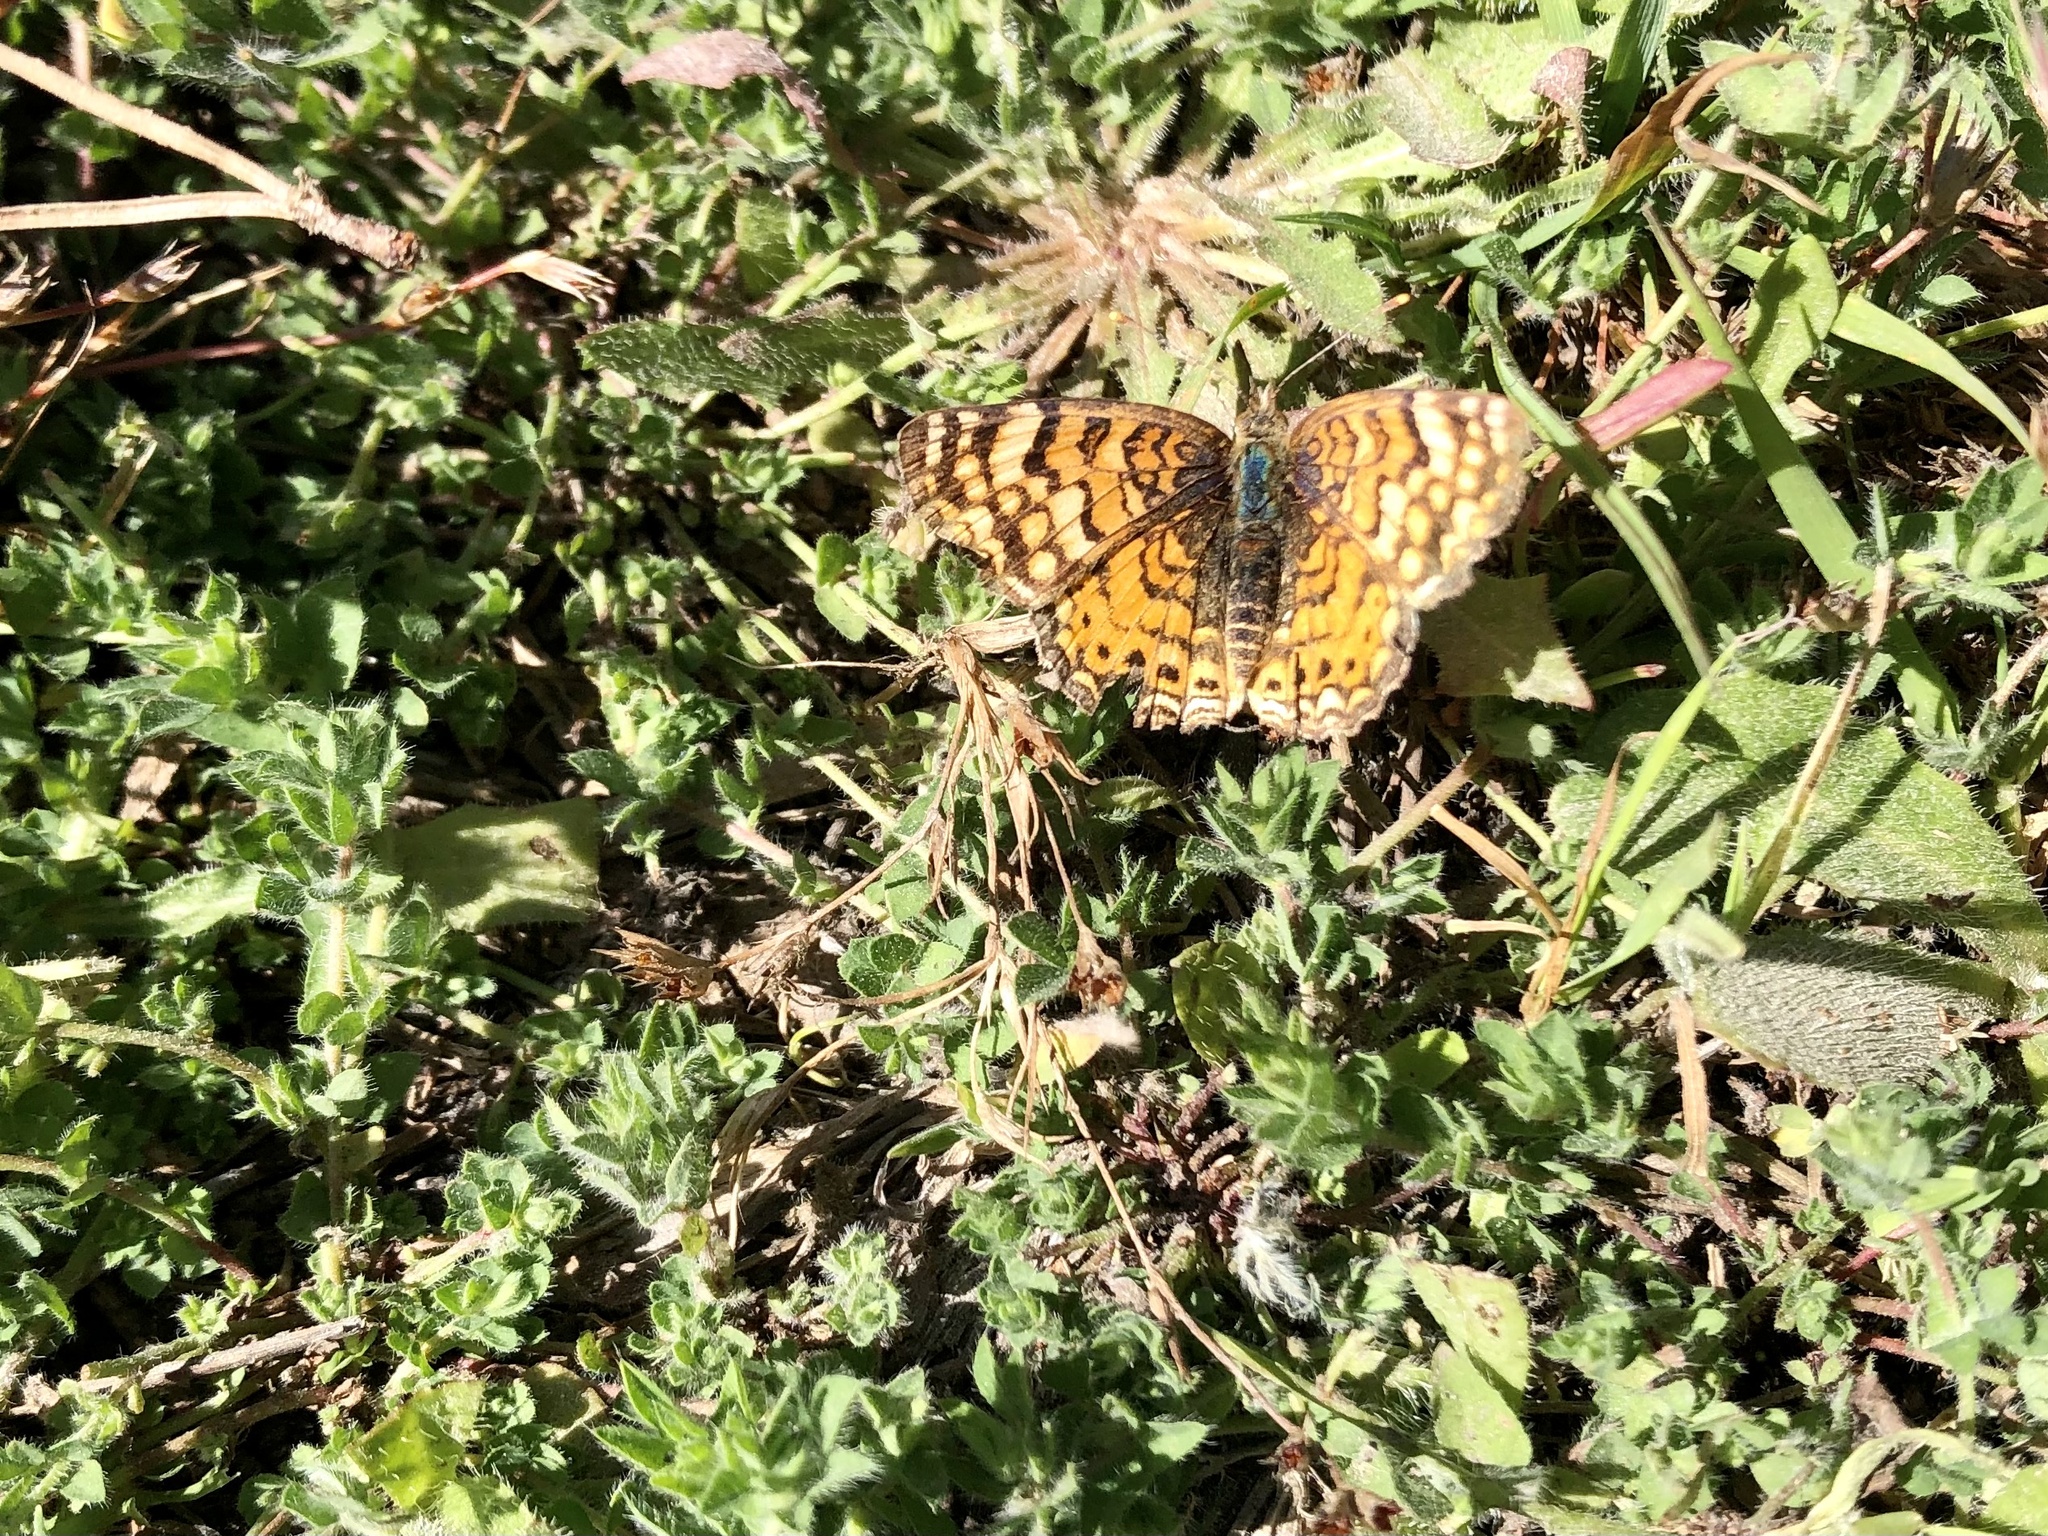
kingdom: Animalia
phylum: Arthropoda
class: Insecta
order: Lepidoptera
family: Nymphalidae
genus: Eresia
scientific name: Eresia aveyrona
